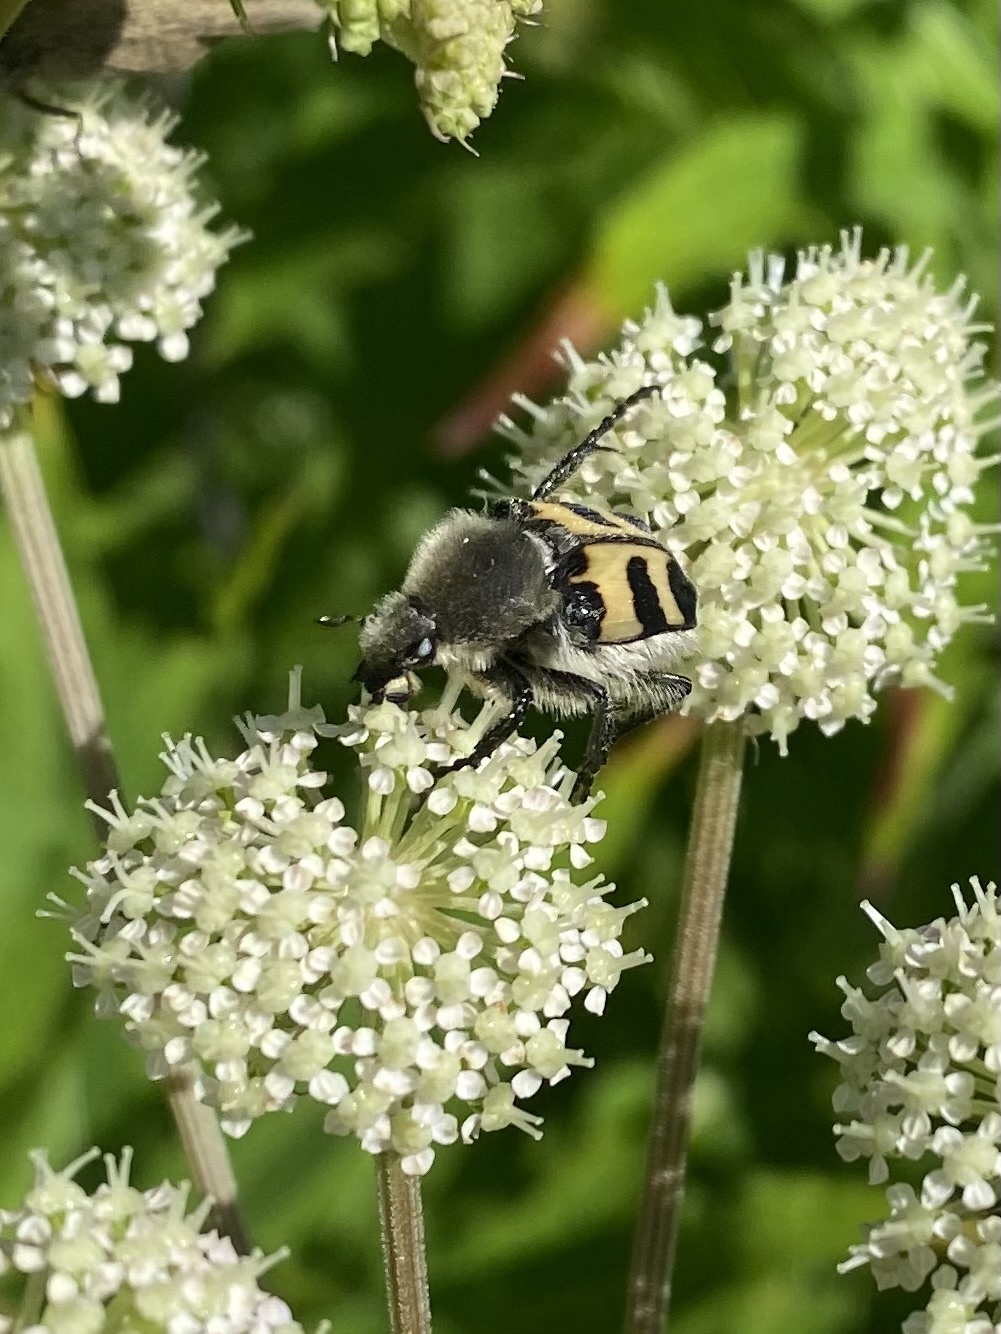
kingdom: Animalia
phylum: Arthropoda
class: Insecta
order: Coleoptera
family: Scarabaeidae
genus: Trichius
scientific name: Trichius fasciatus
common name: Bee beetle
